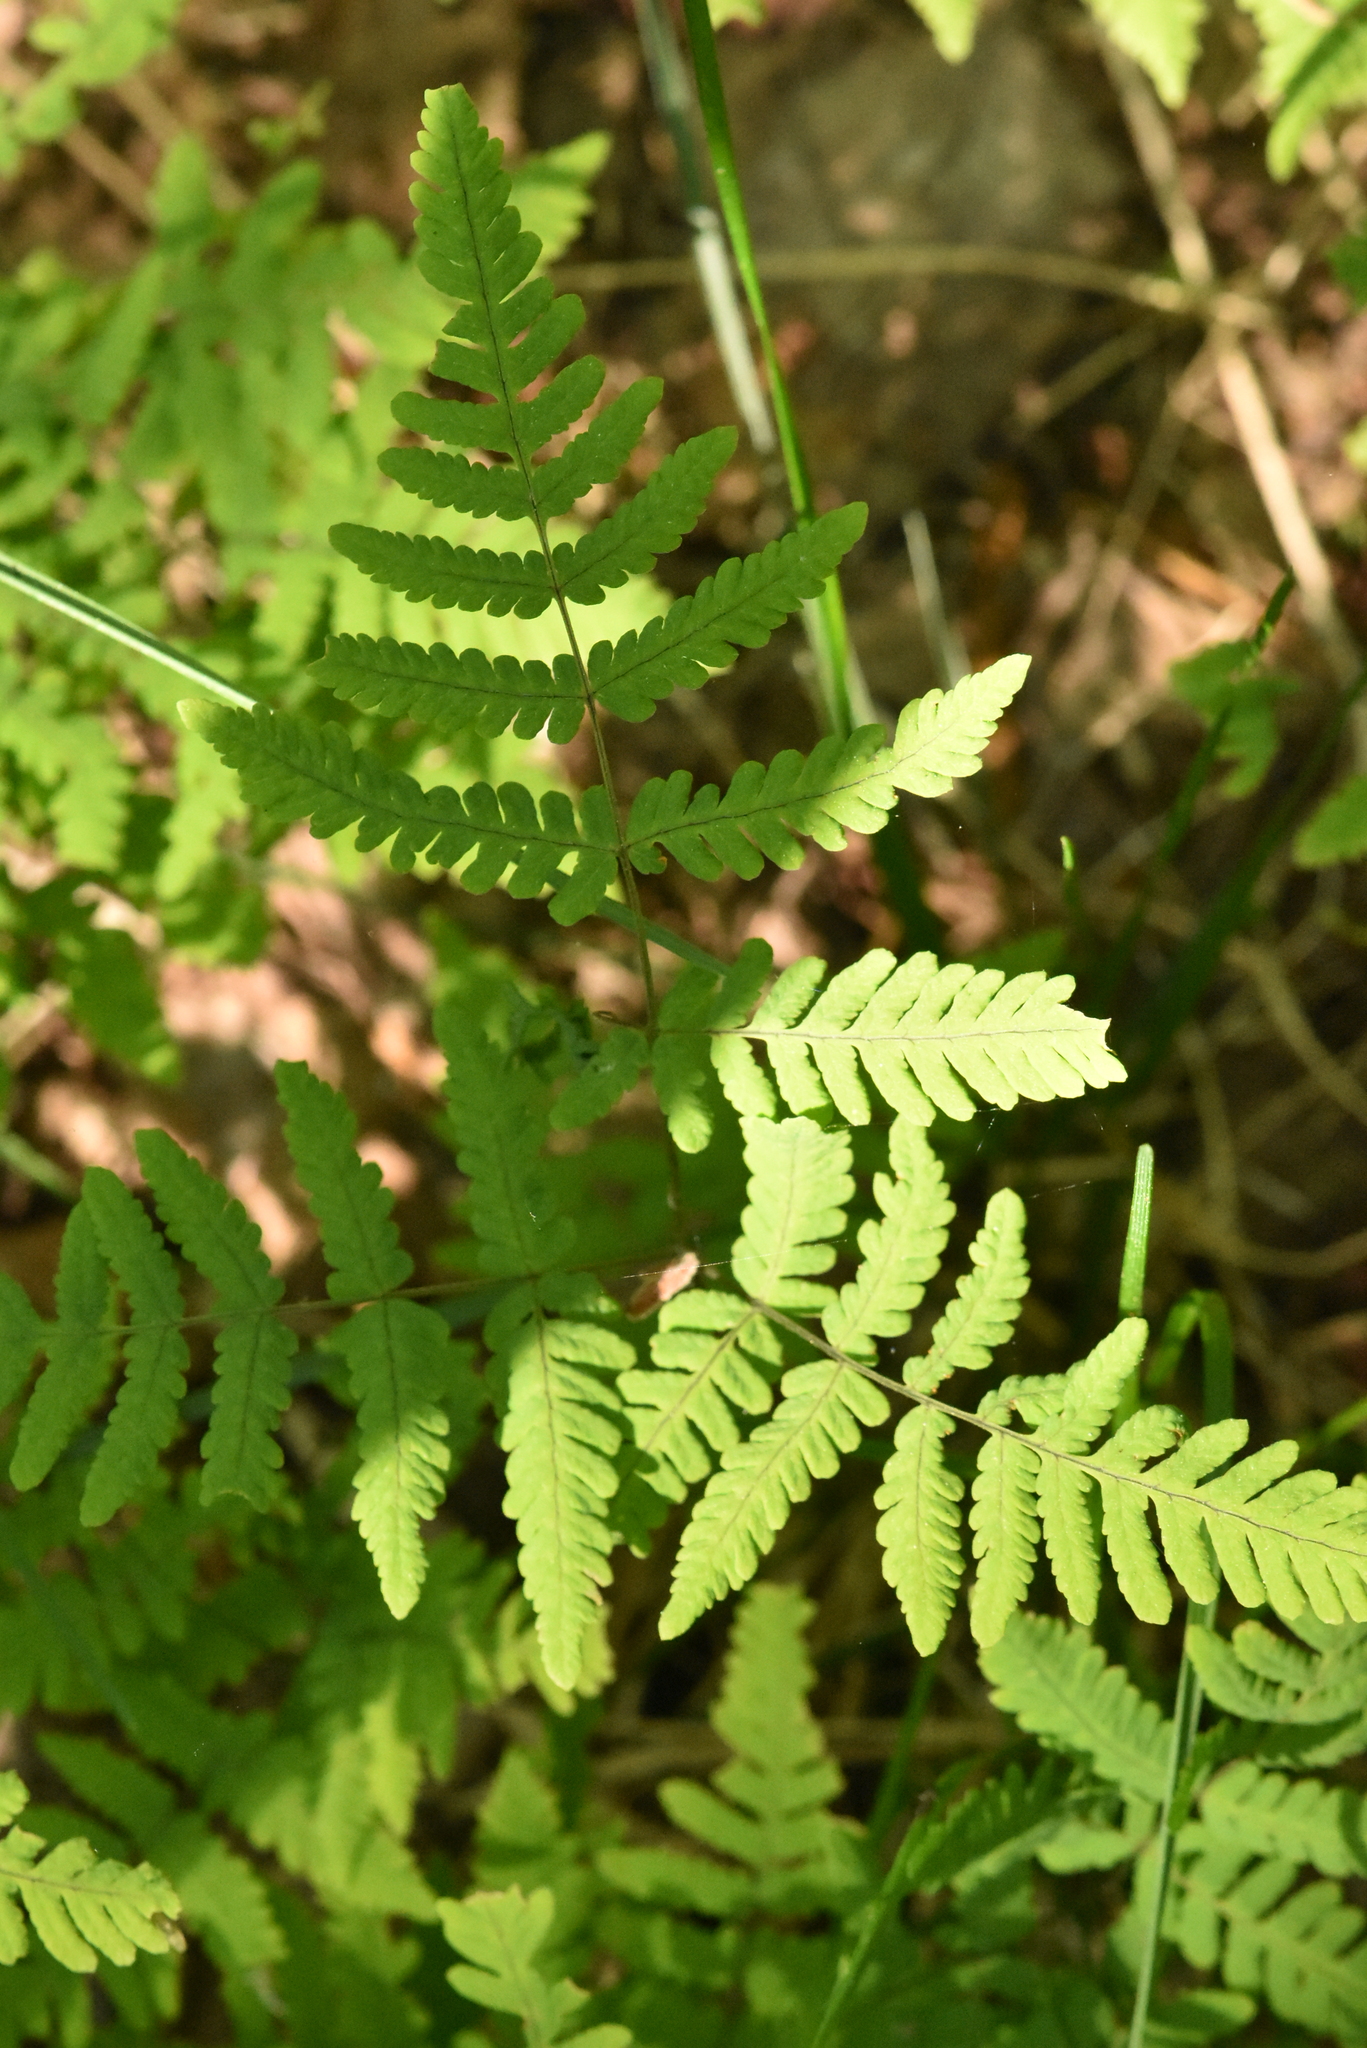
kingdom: Plantae
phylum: Tracheophyta
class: Polypodiopsida
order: Polypodiales
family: Cystopteridaceae
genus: Gymnocarpium
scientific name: Gymnocarpium dryopteris
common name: Oak fern
